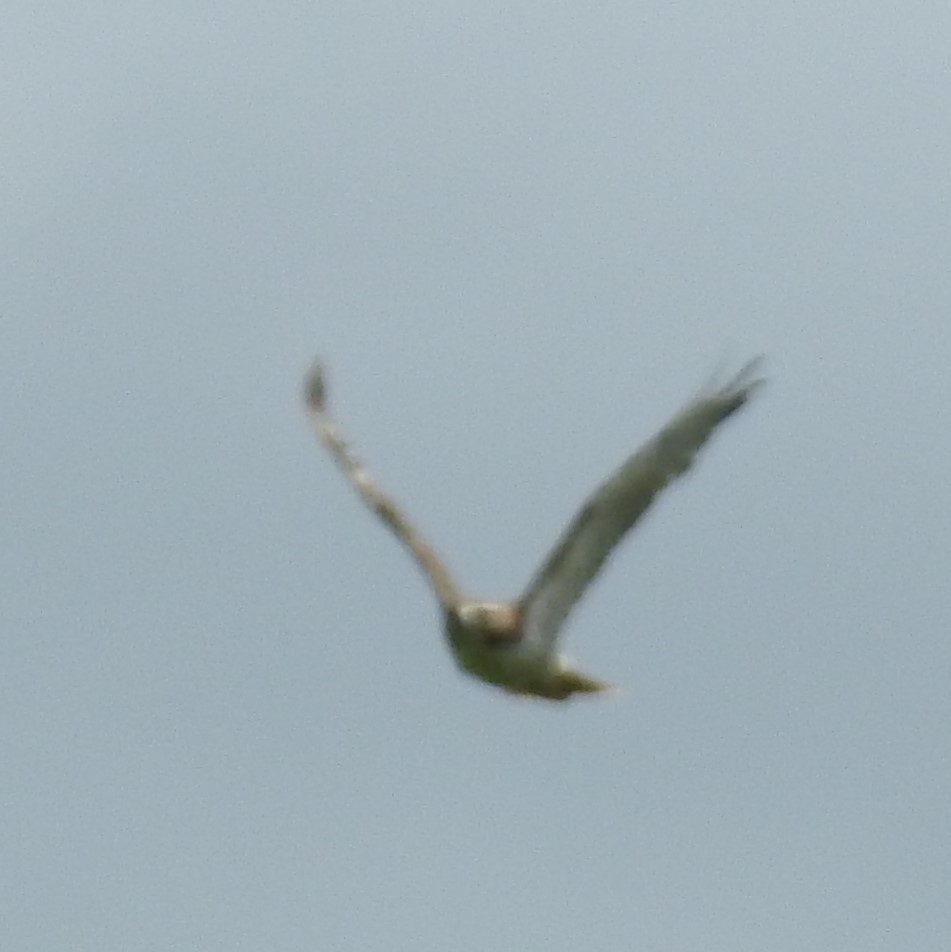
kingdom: Animalia
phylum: Chordata
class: Aves
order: Accipitriformes
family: Accipitridae
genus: Buteo
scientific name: Buteo jamaicensis
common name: Red-tailed hawk
